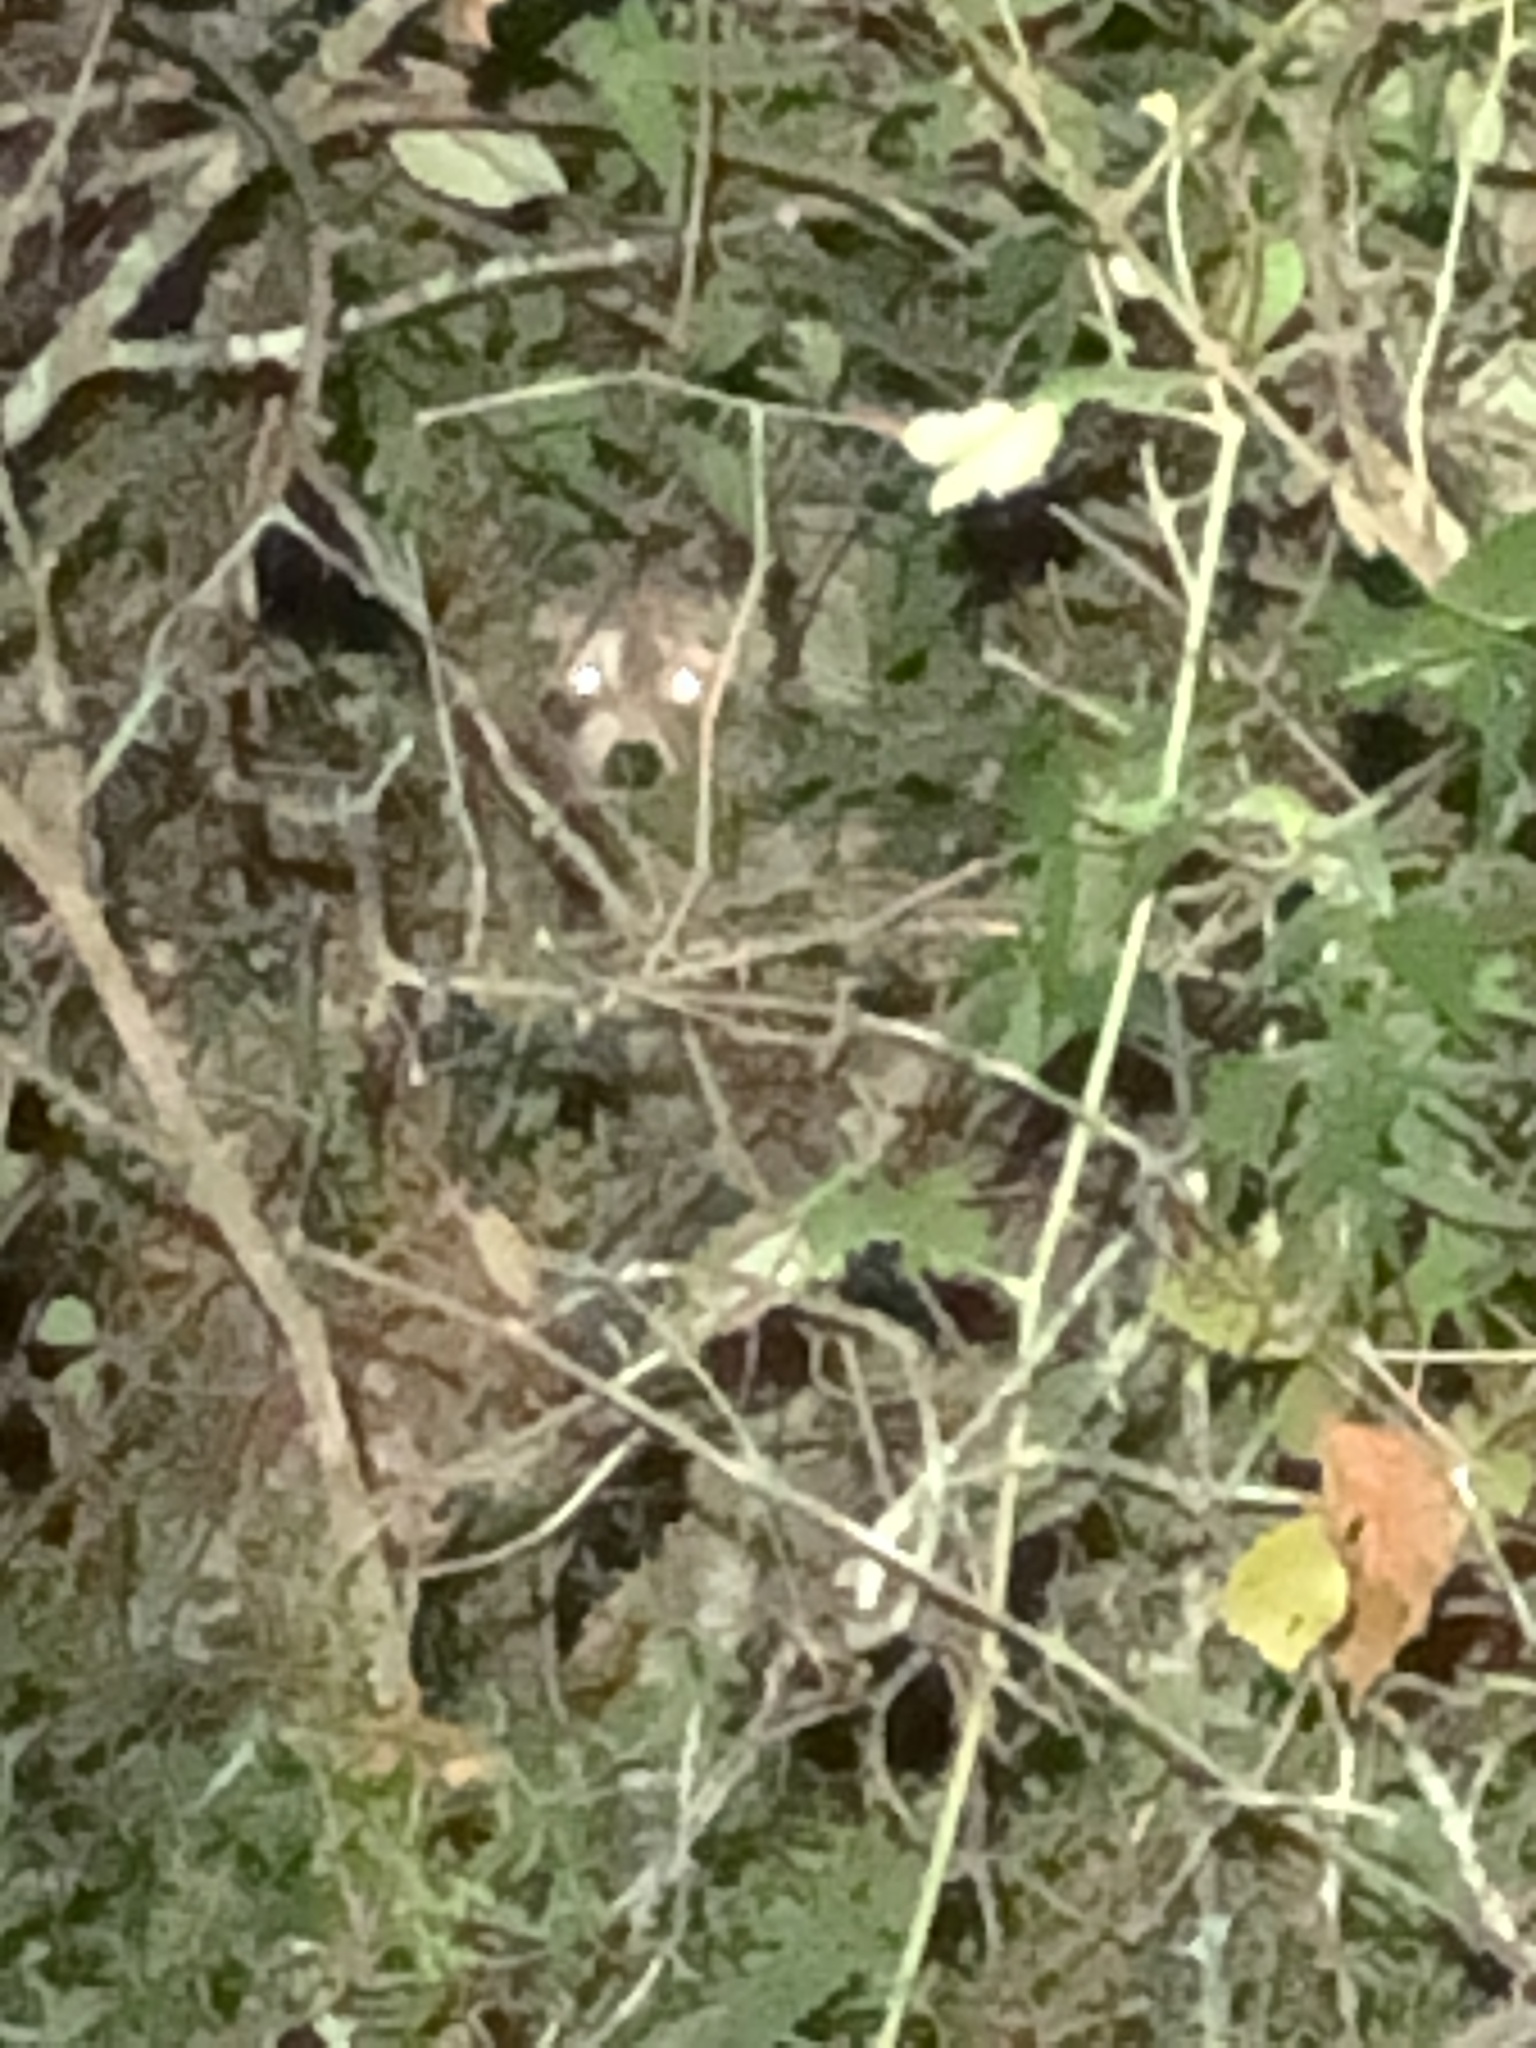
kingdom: Animalia
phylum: Chordata
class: Mammalia
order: Carnivora
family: Procyonidae
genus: Procyon
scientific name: Procyon lotor
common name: Raccoon
